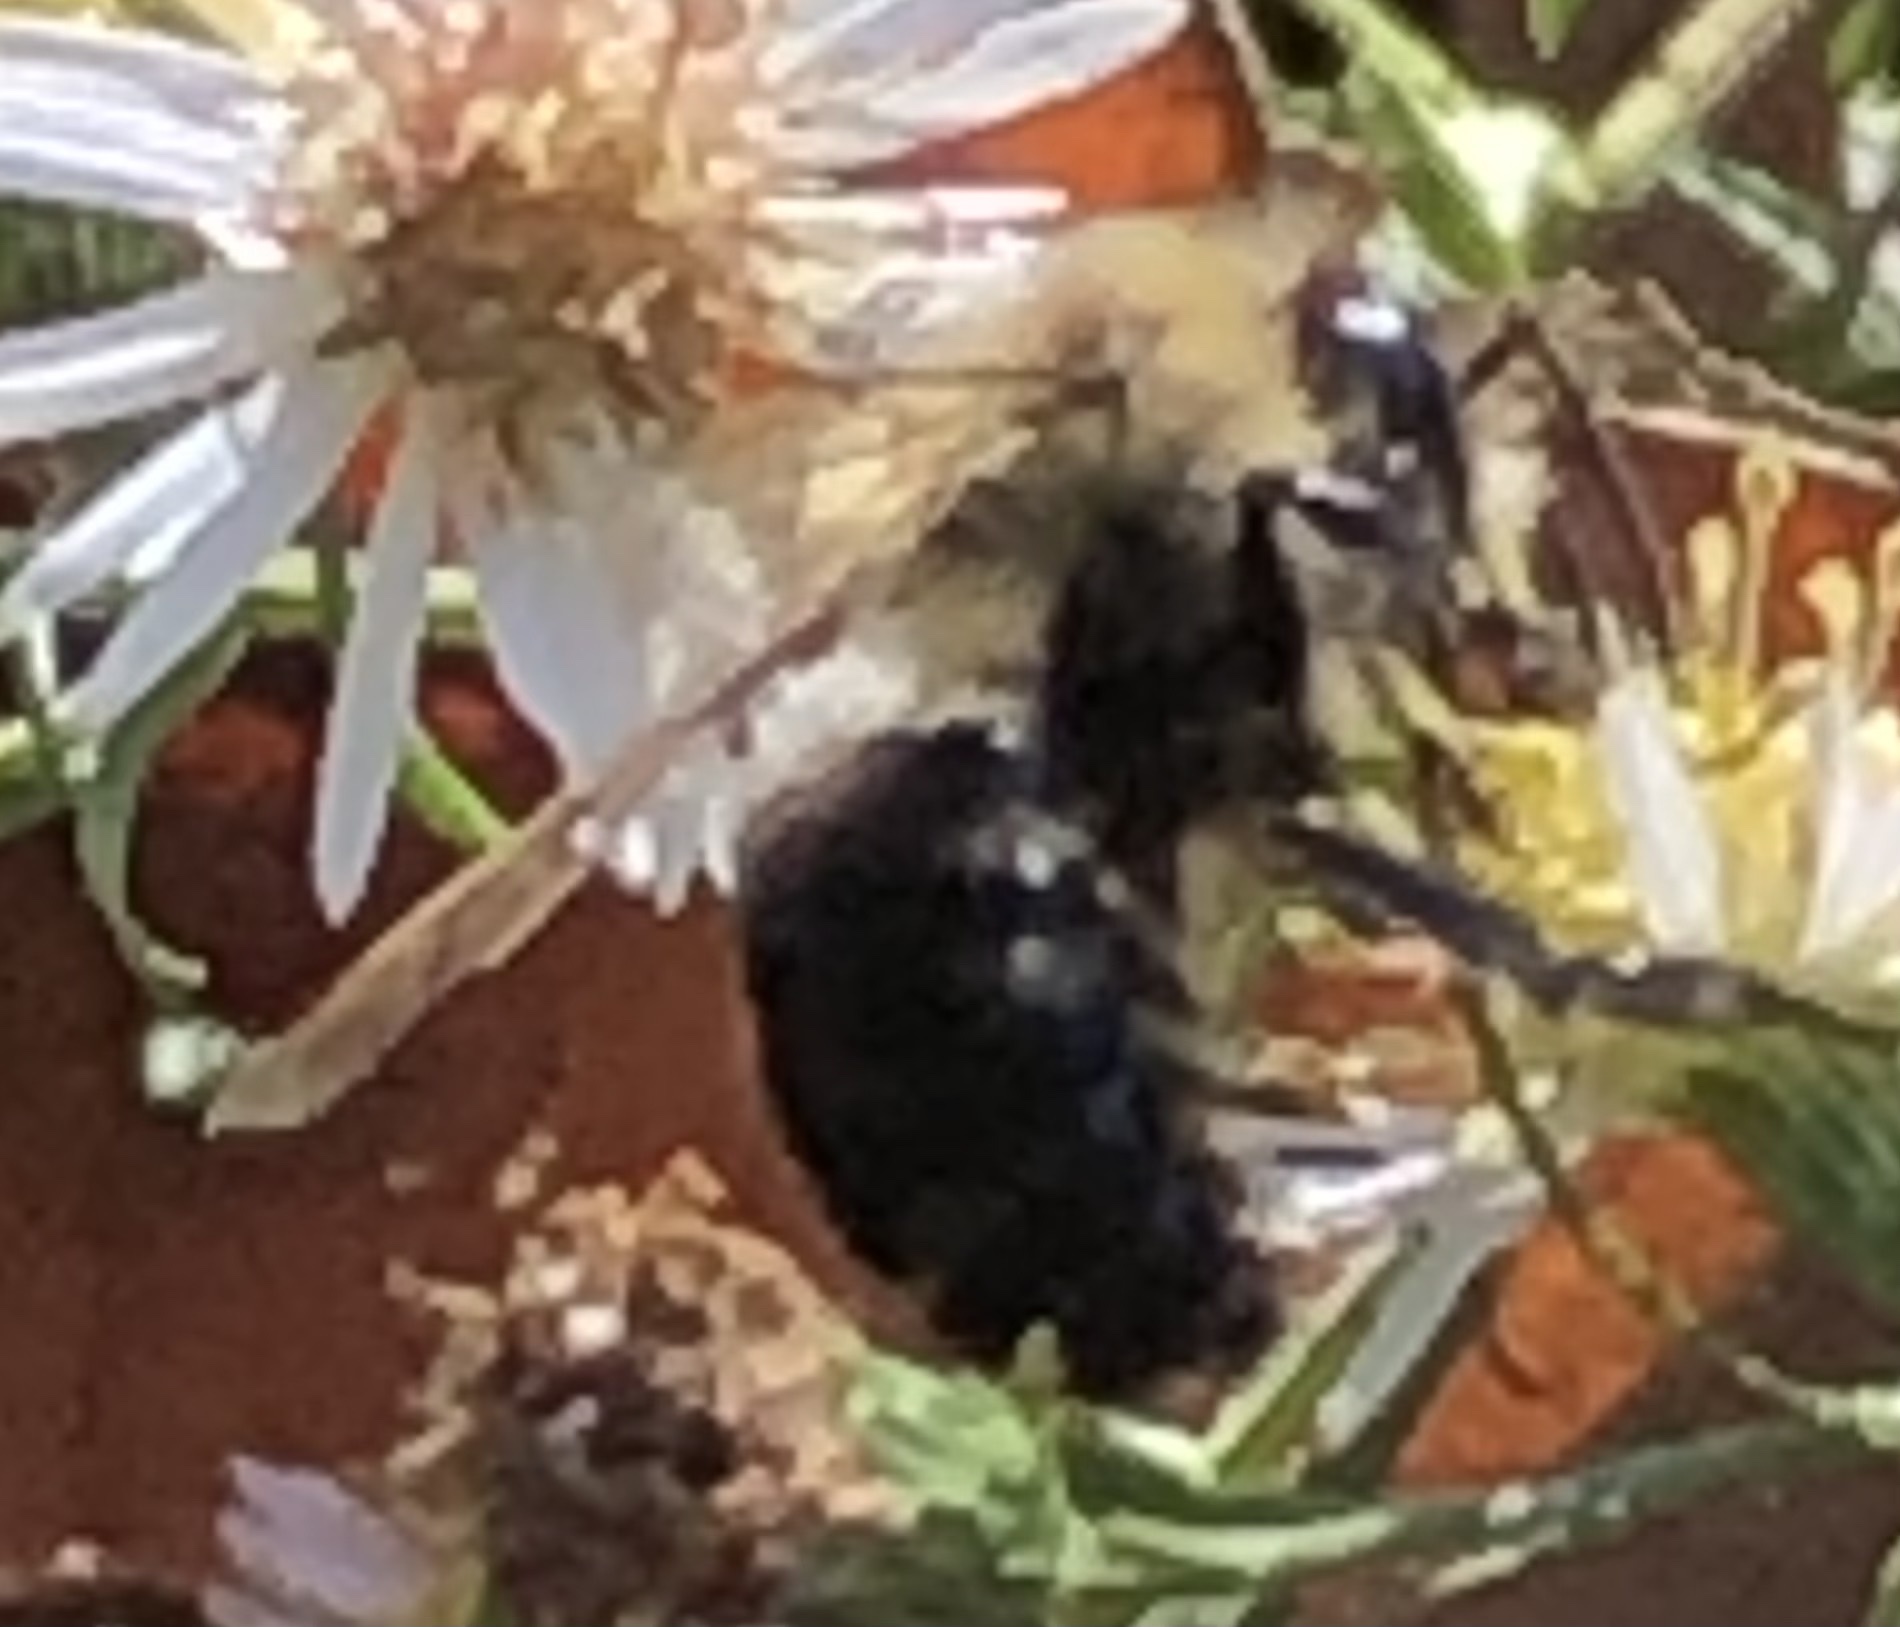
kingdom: Animalia
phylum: Arthropoda
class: Insecta
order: Hymenoptera
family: Apidae
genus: Bombus
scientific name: Bombus impatiens
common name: Common eastern bumble bee
